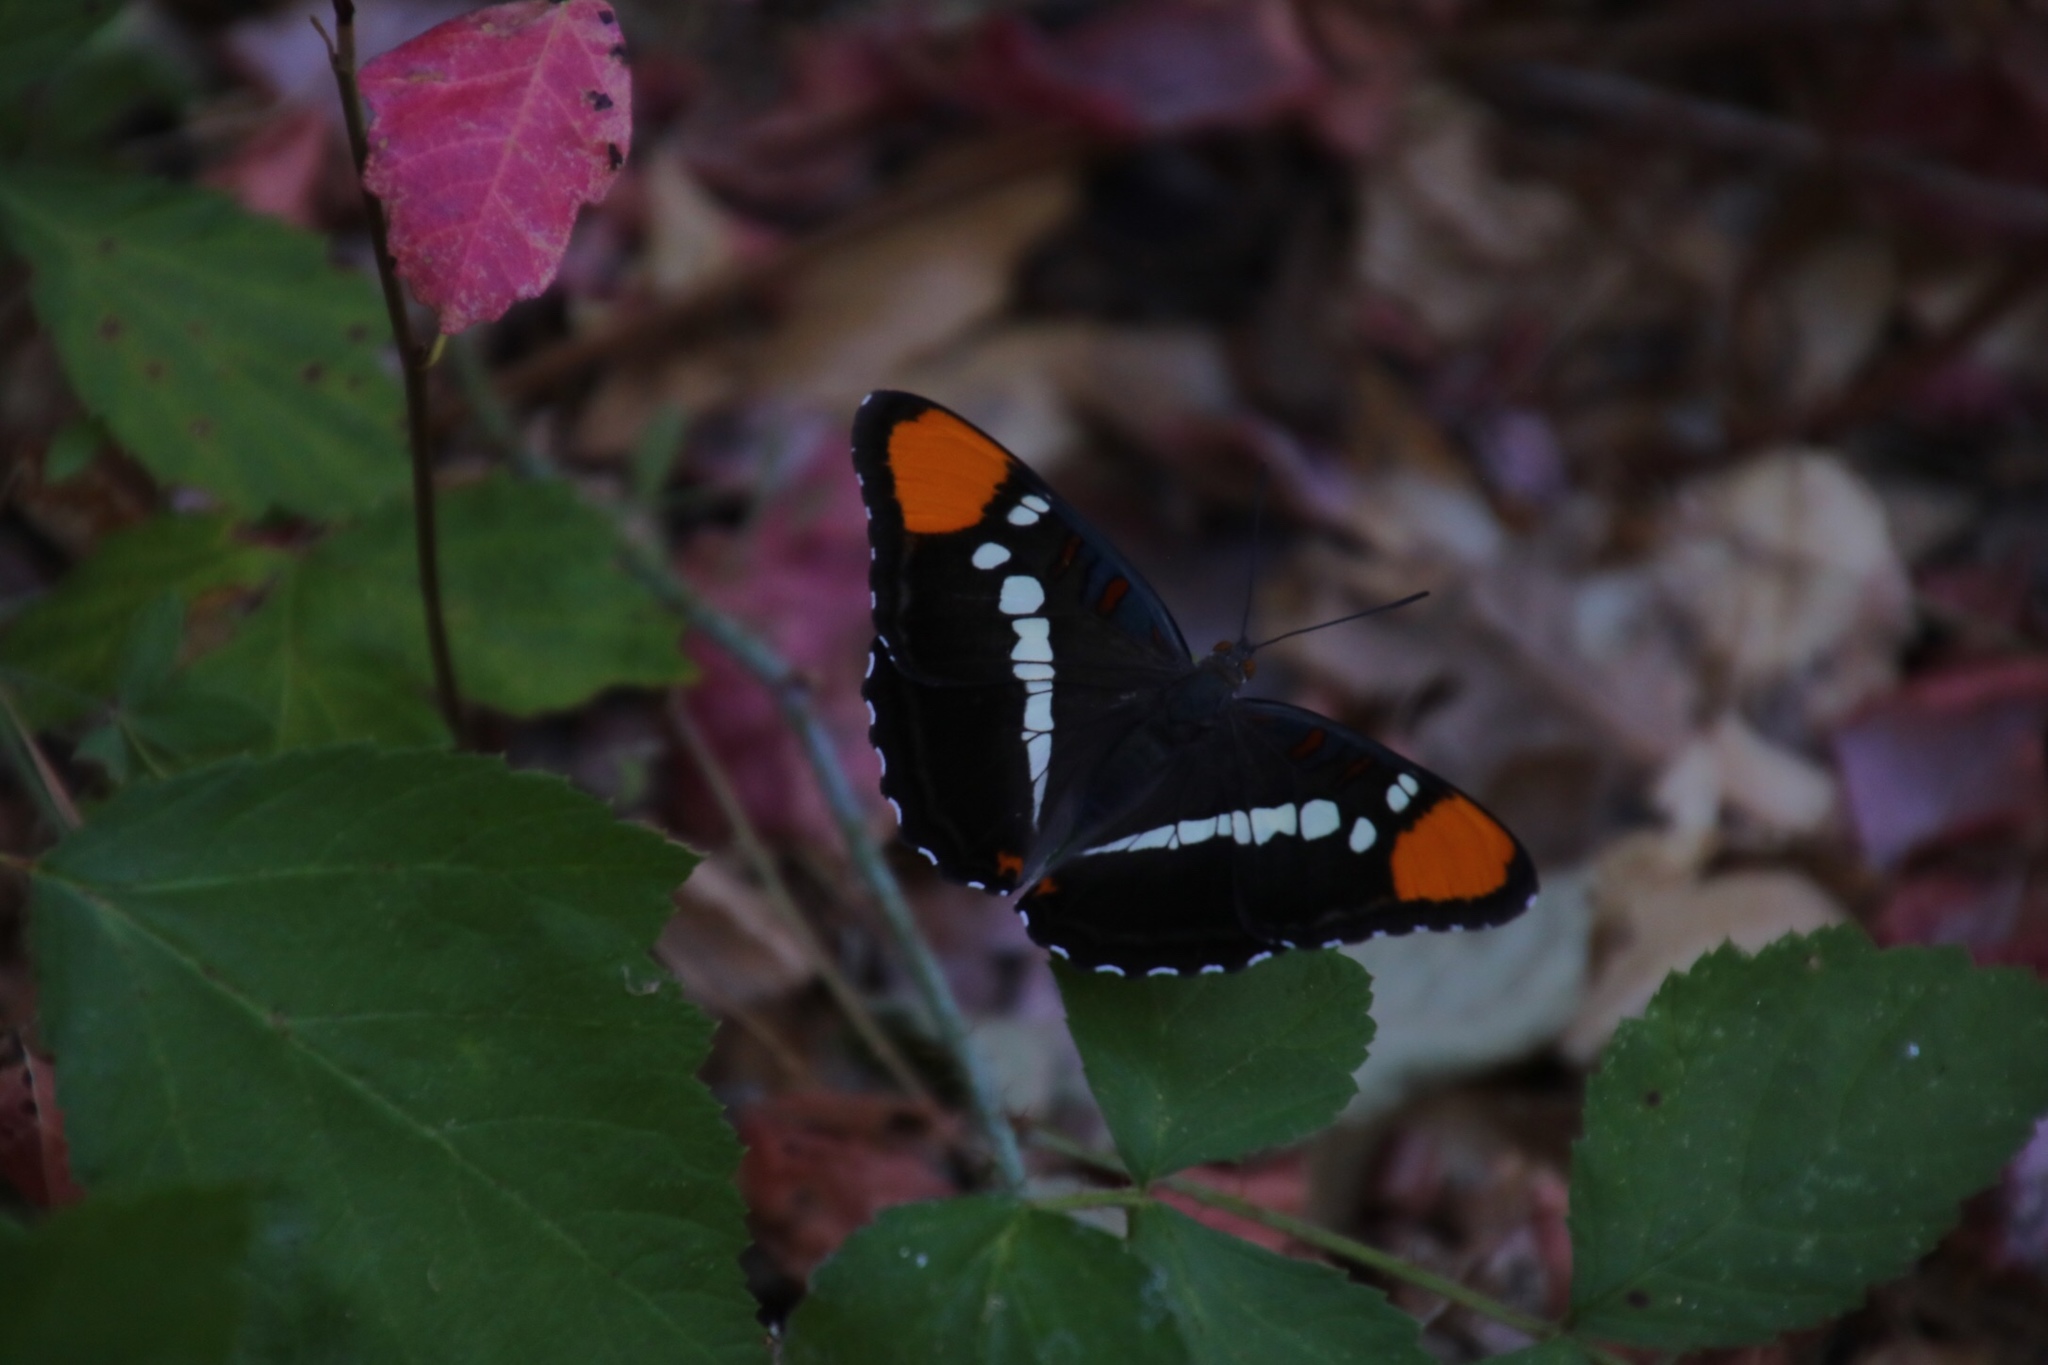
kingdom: Animalia
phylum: Arthropoda
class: Insecta
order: Lepidoptera
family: Nymphalidae
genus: Limenitis
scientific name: Limenitis bredowii
